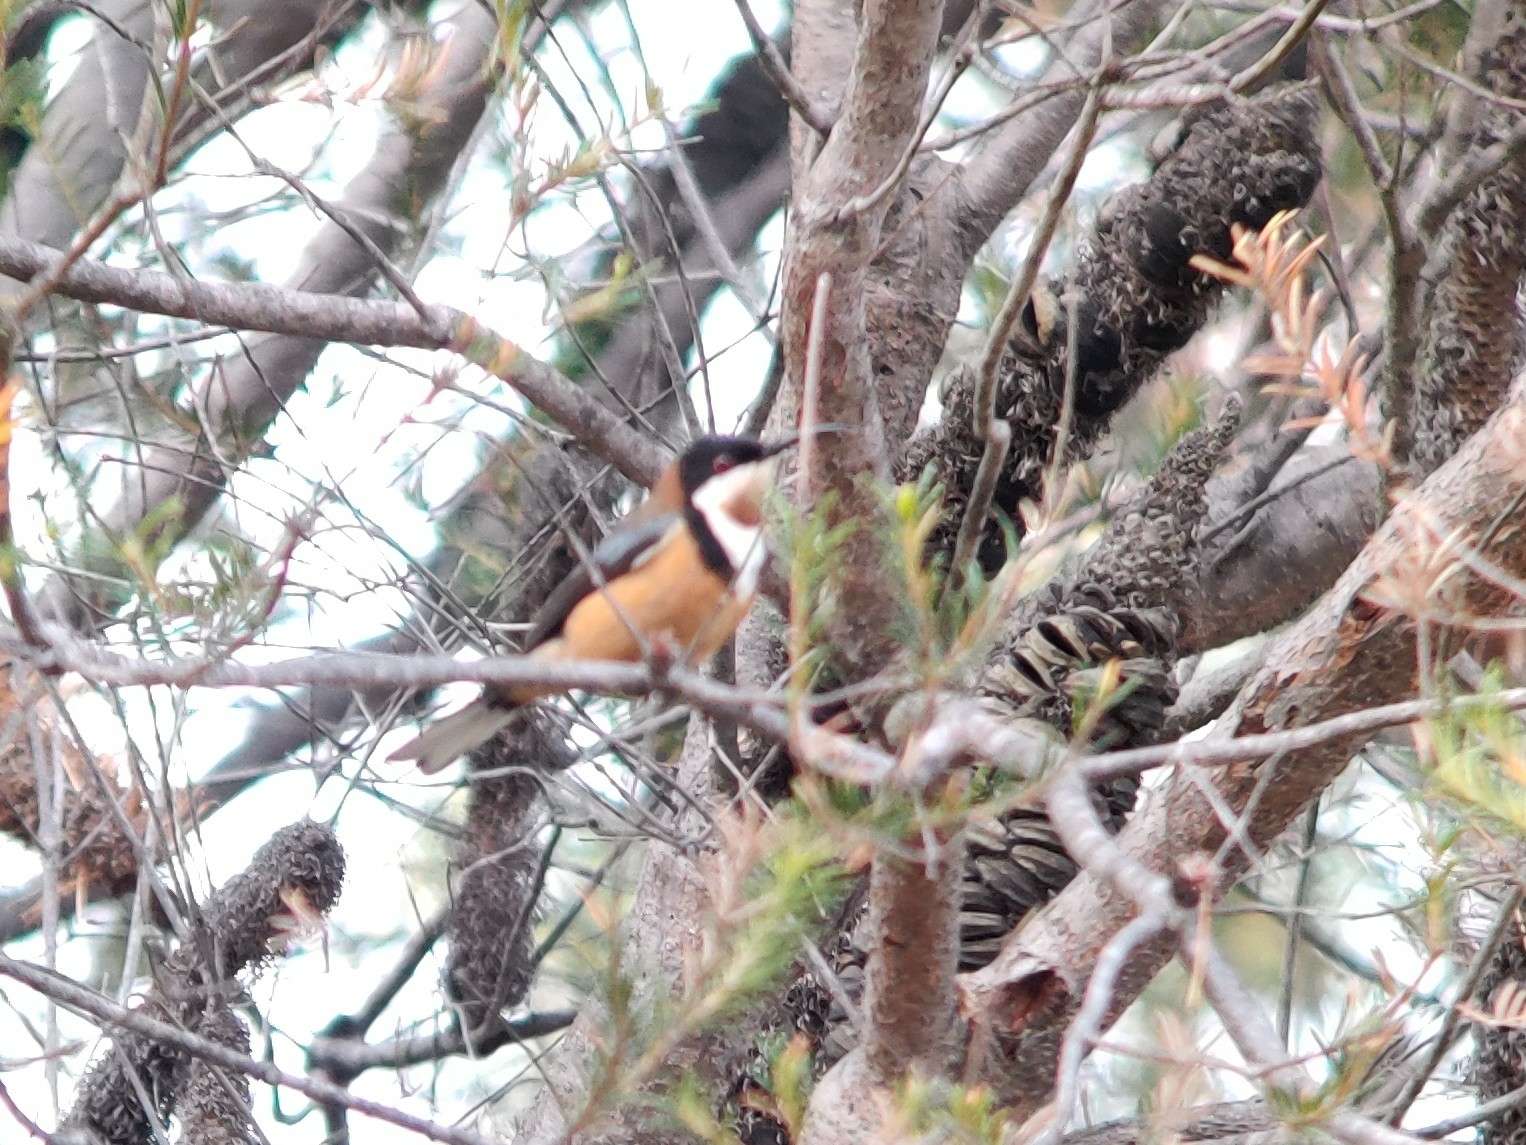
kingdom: Animalia
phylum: Chordata
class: Aves
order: Passeriformes
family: Meliphagidae
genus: Acanthorhynchus
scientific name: Acanthorhynchus tenuirostris
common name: Eastern spinebill
